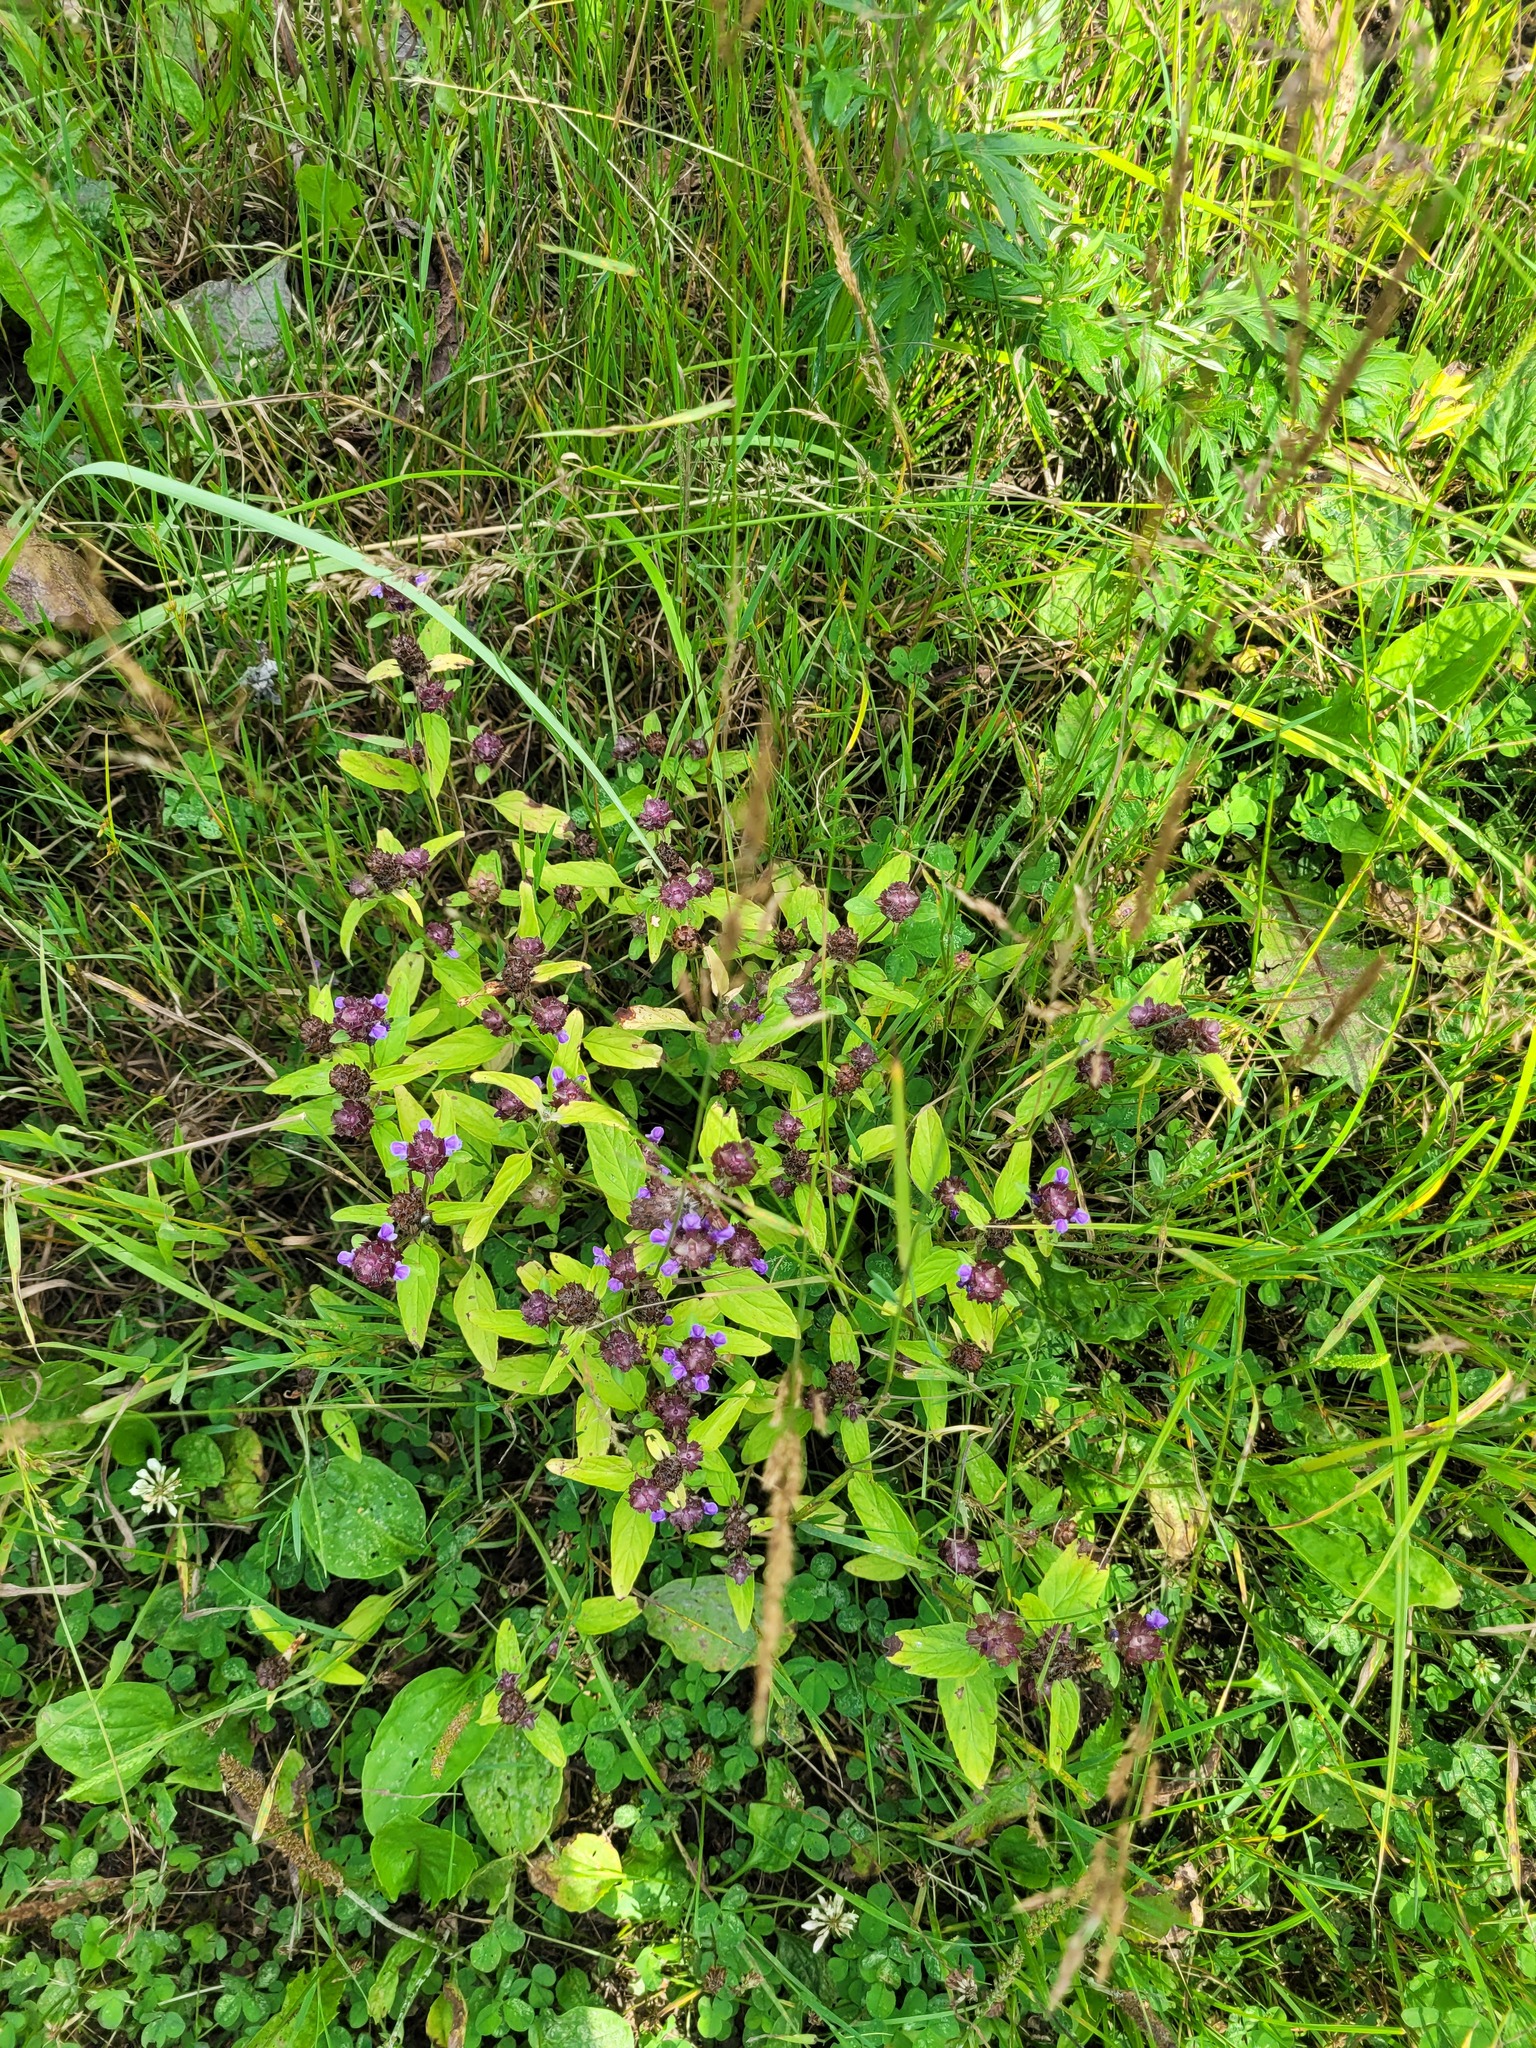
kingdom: Plantae
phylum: Tracheophyta
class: Magnoliopsida
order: Lamiales
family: Lamiaceae
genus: Prunella
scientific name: Prunella vulgaris
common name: Heal-all
